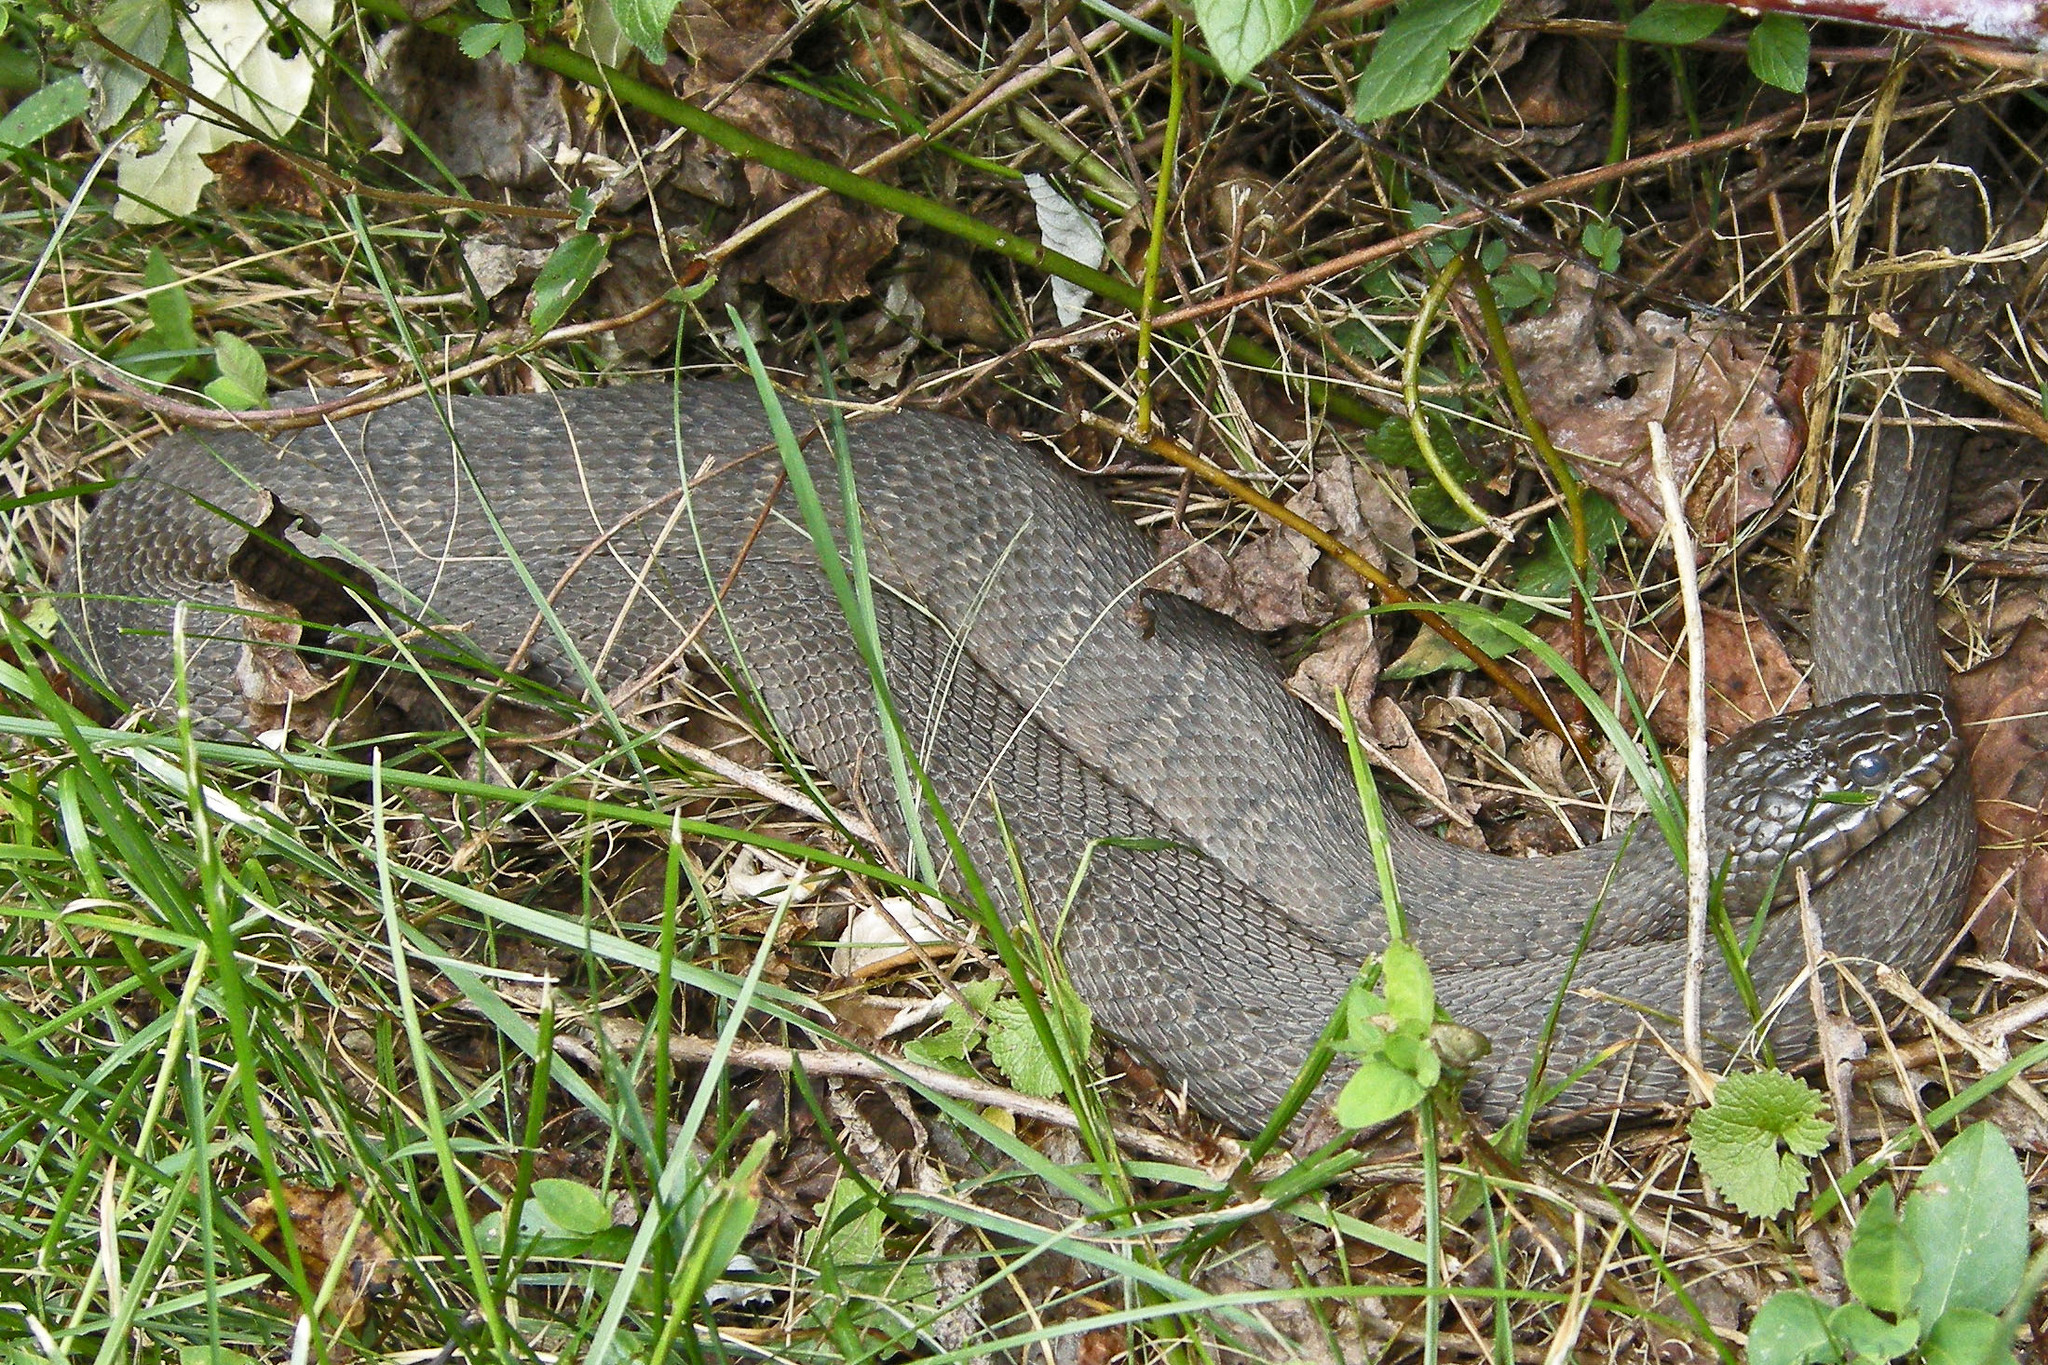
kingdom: Animalia
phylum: Chordata
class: Squamata
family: Colubridae
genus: Nerodia
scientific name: Nerodia sipedon
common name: Northern water snake
